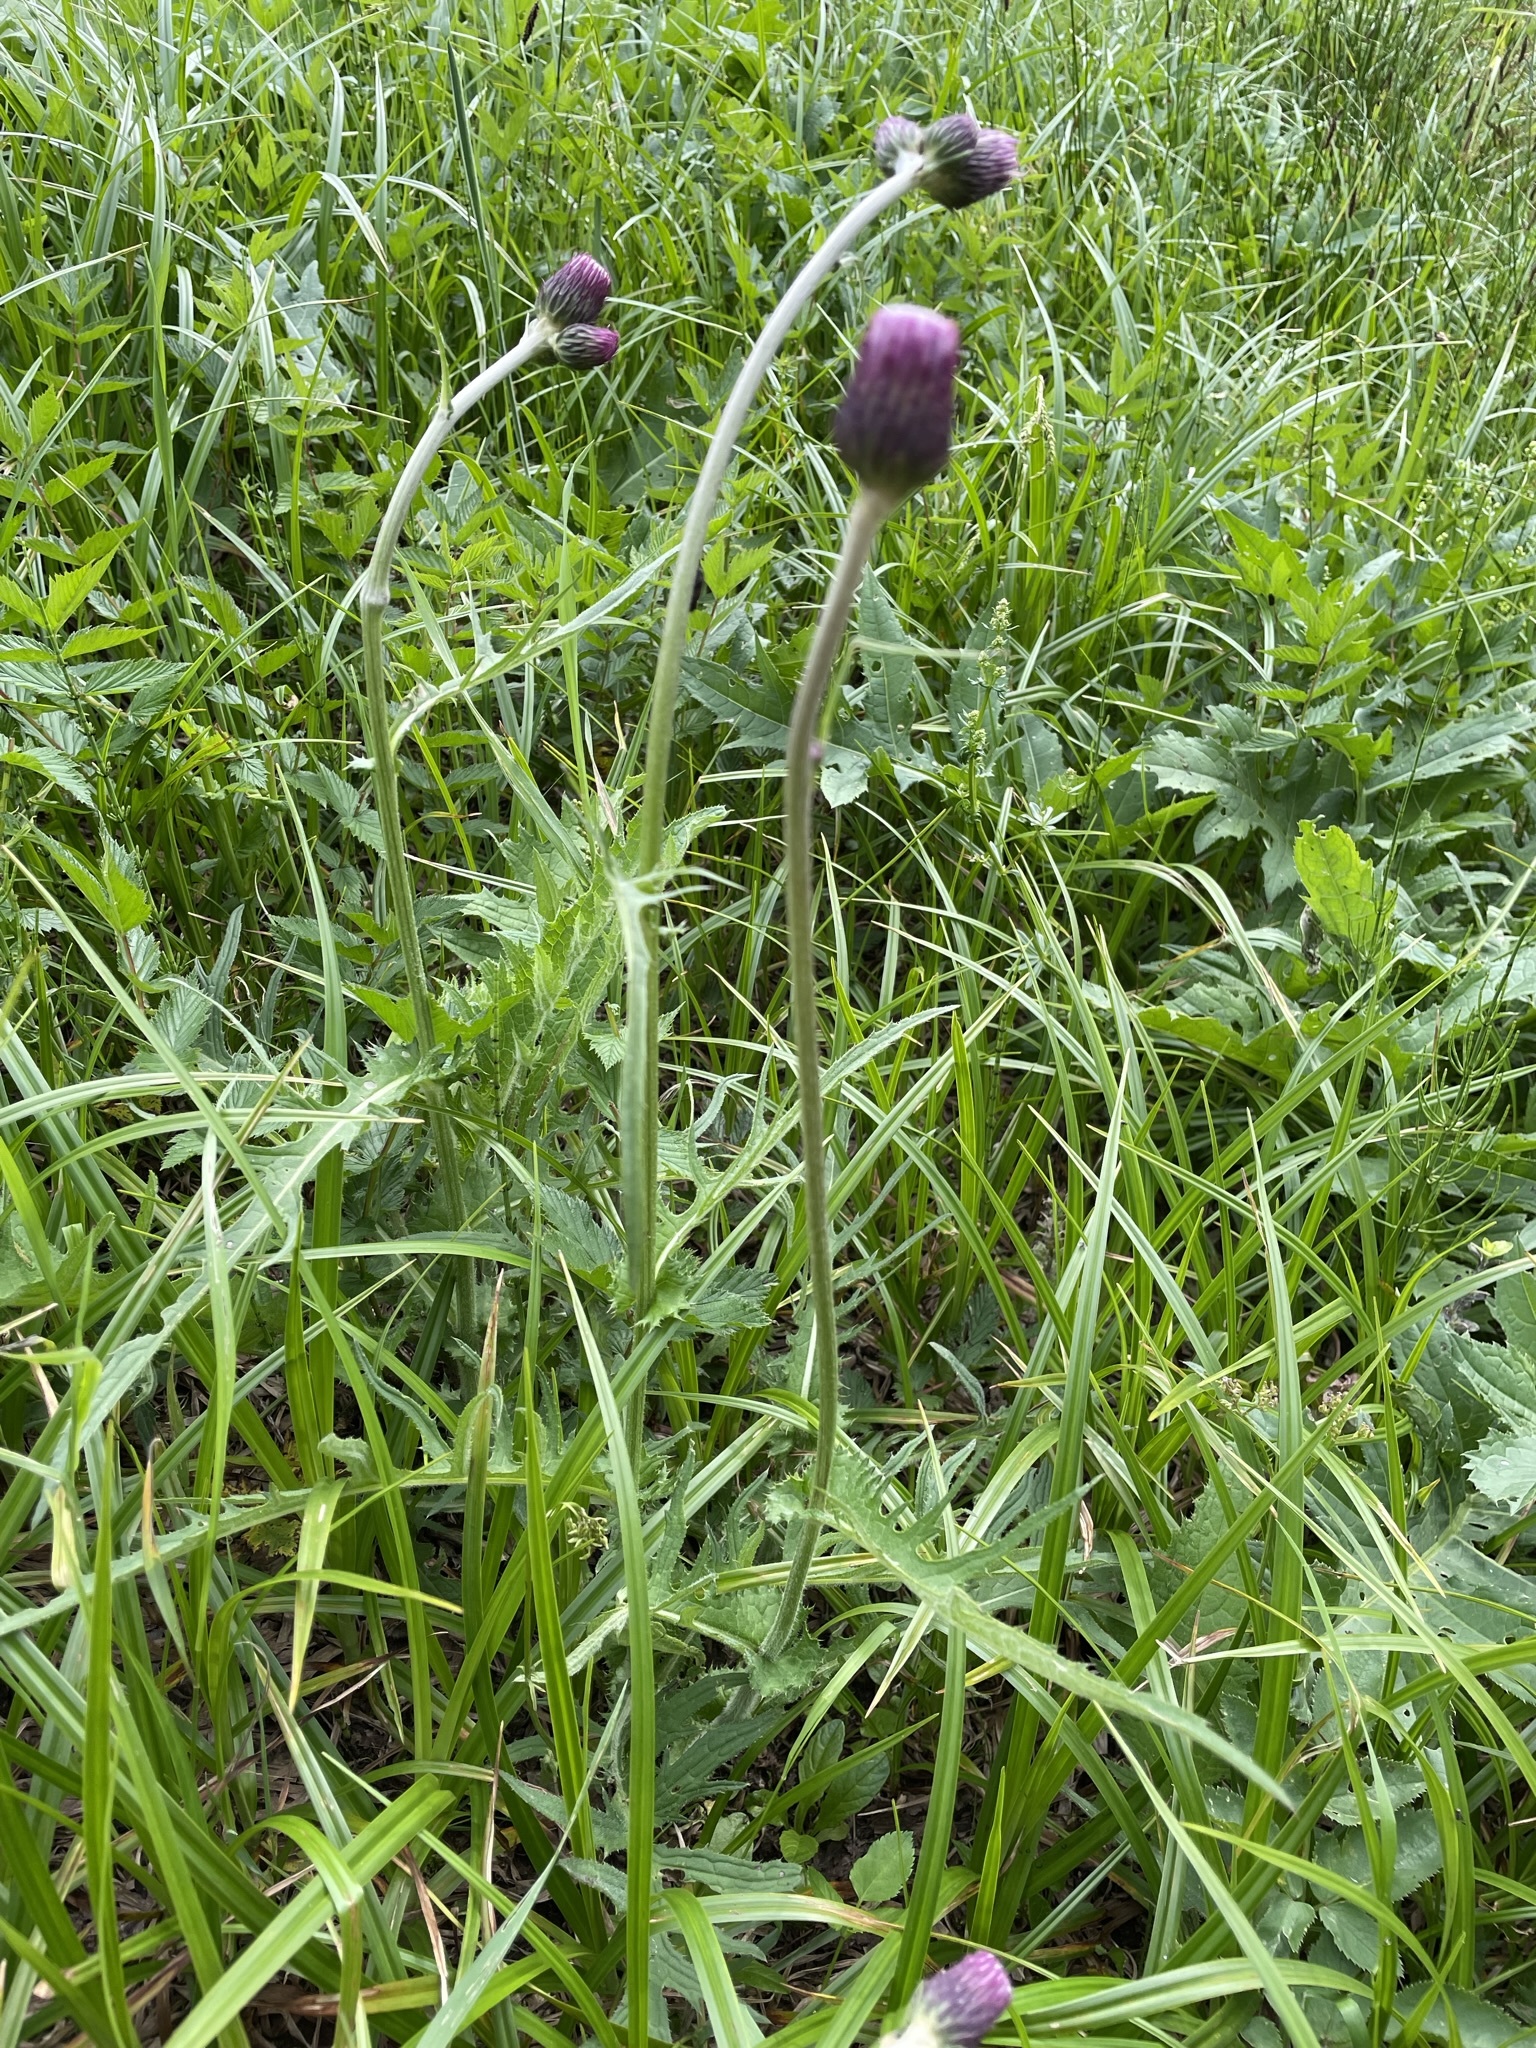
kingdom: Plantae
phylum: Tracheophyta
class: Magnoliopsida
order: Asterales
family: Asteraceae
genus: Cirsium
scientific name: Cirsium rivulare
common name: Brook thistle
